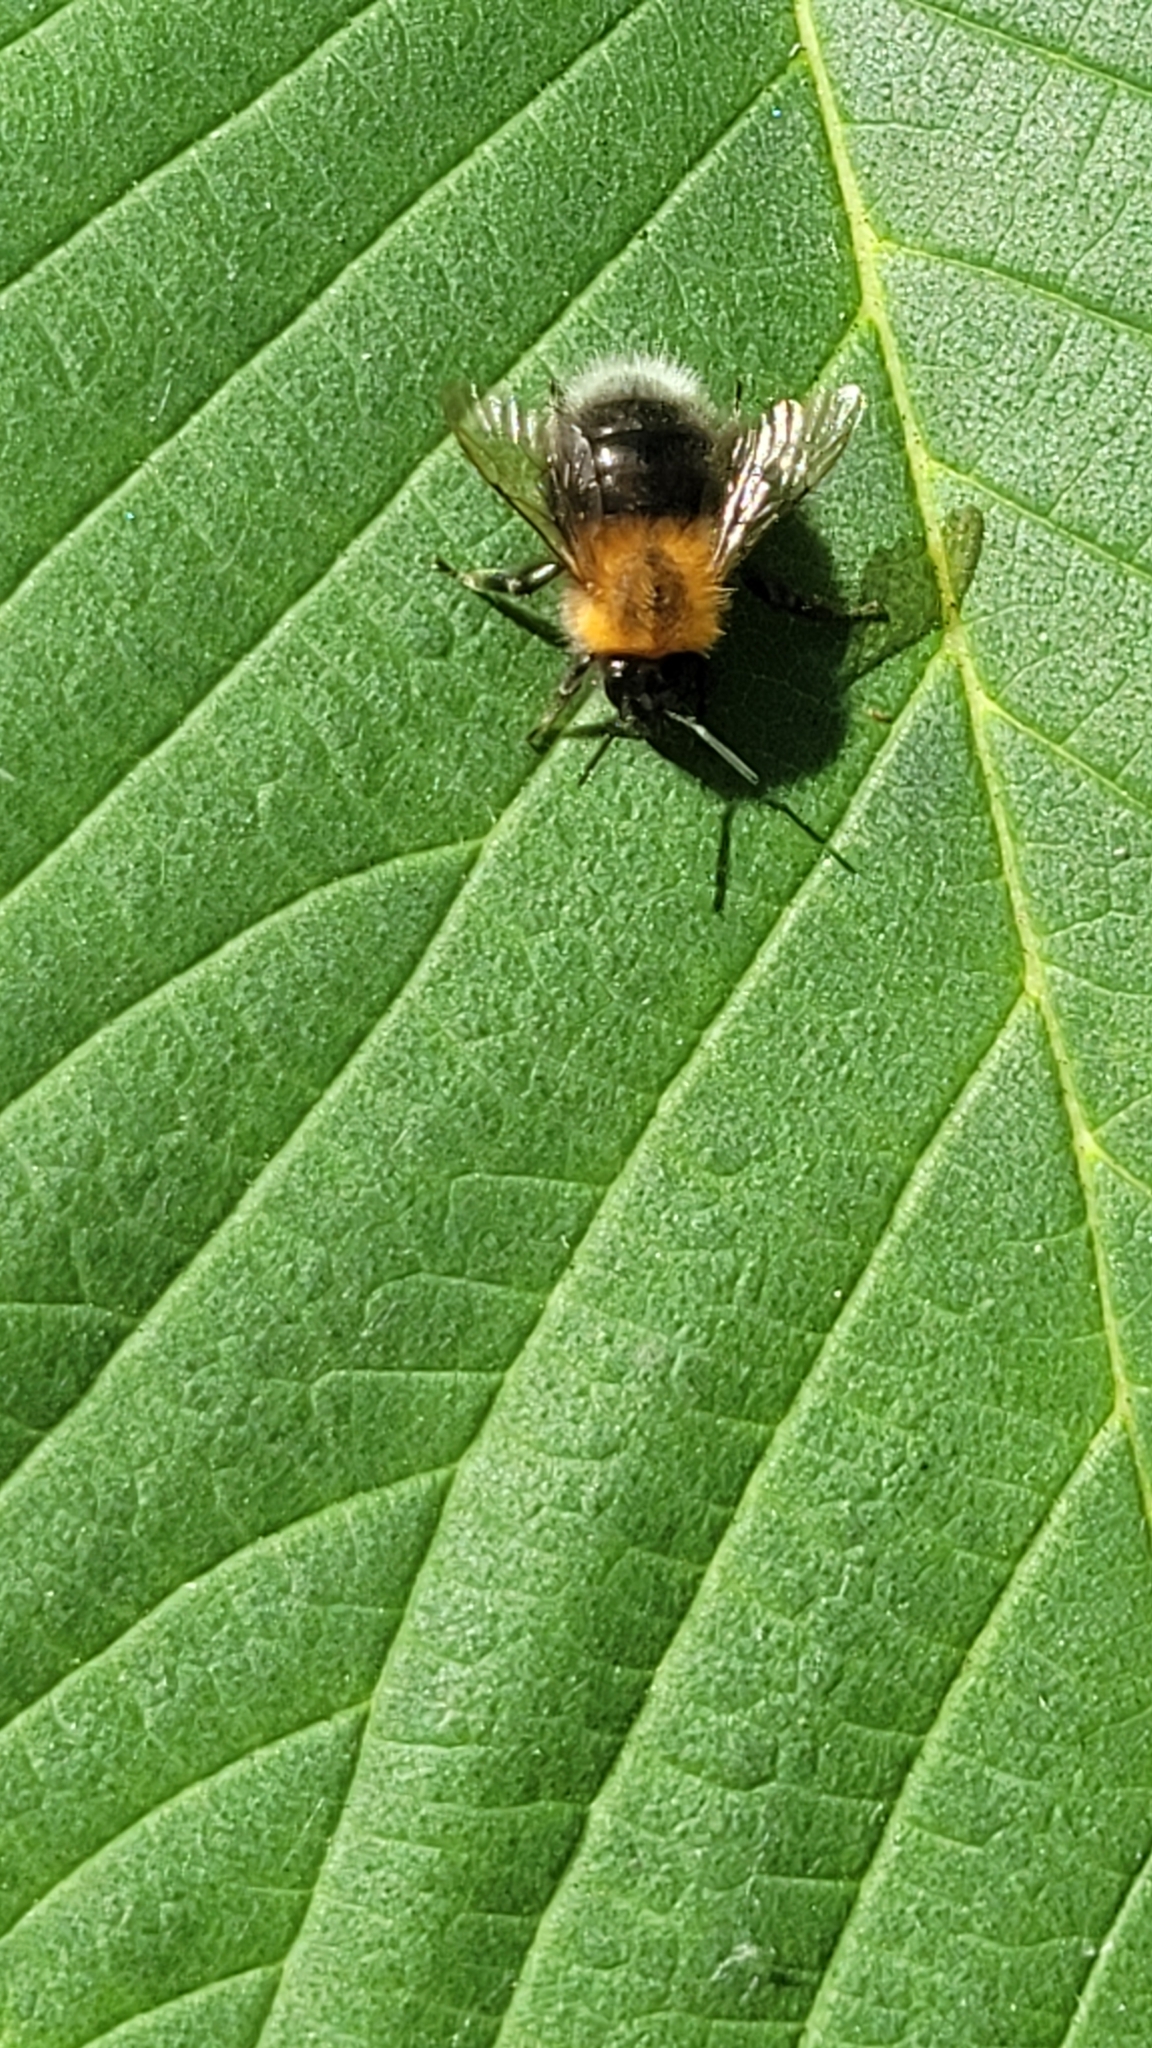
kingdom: Animalia
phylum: Arthropoda
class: Insecta
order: Hymenoptera
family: Apidae
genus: Bombus
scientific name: Bombus hypnorum
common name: New garden bumblebee
